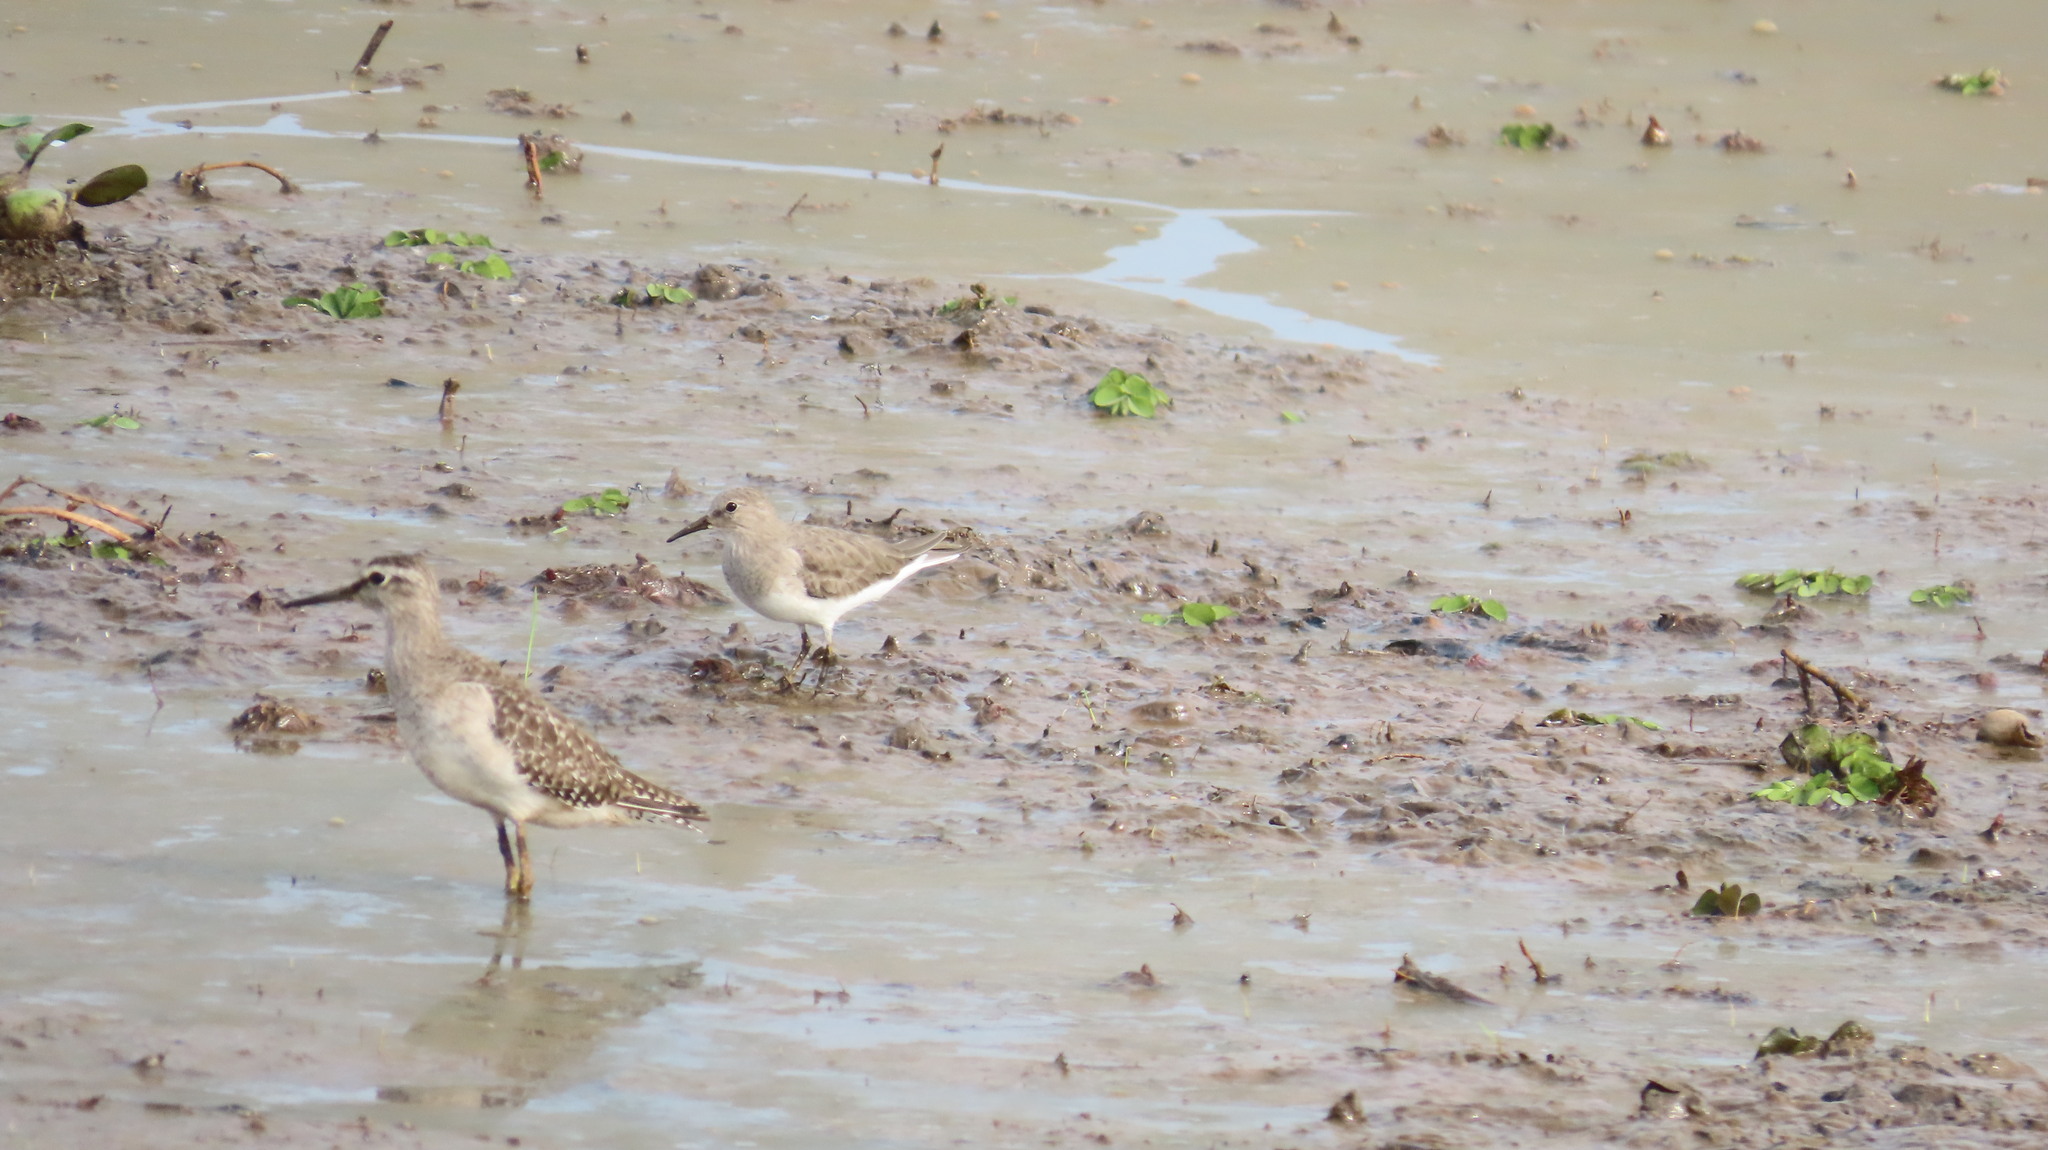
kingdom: Animalia
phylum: Chordata
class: Aves
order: Charadriiformes
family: Scolopacidae
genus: Tringa
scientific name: Tringa glareola
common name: Wood sandpiper
